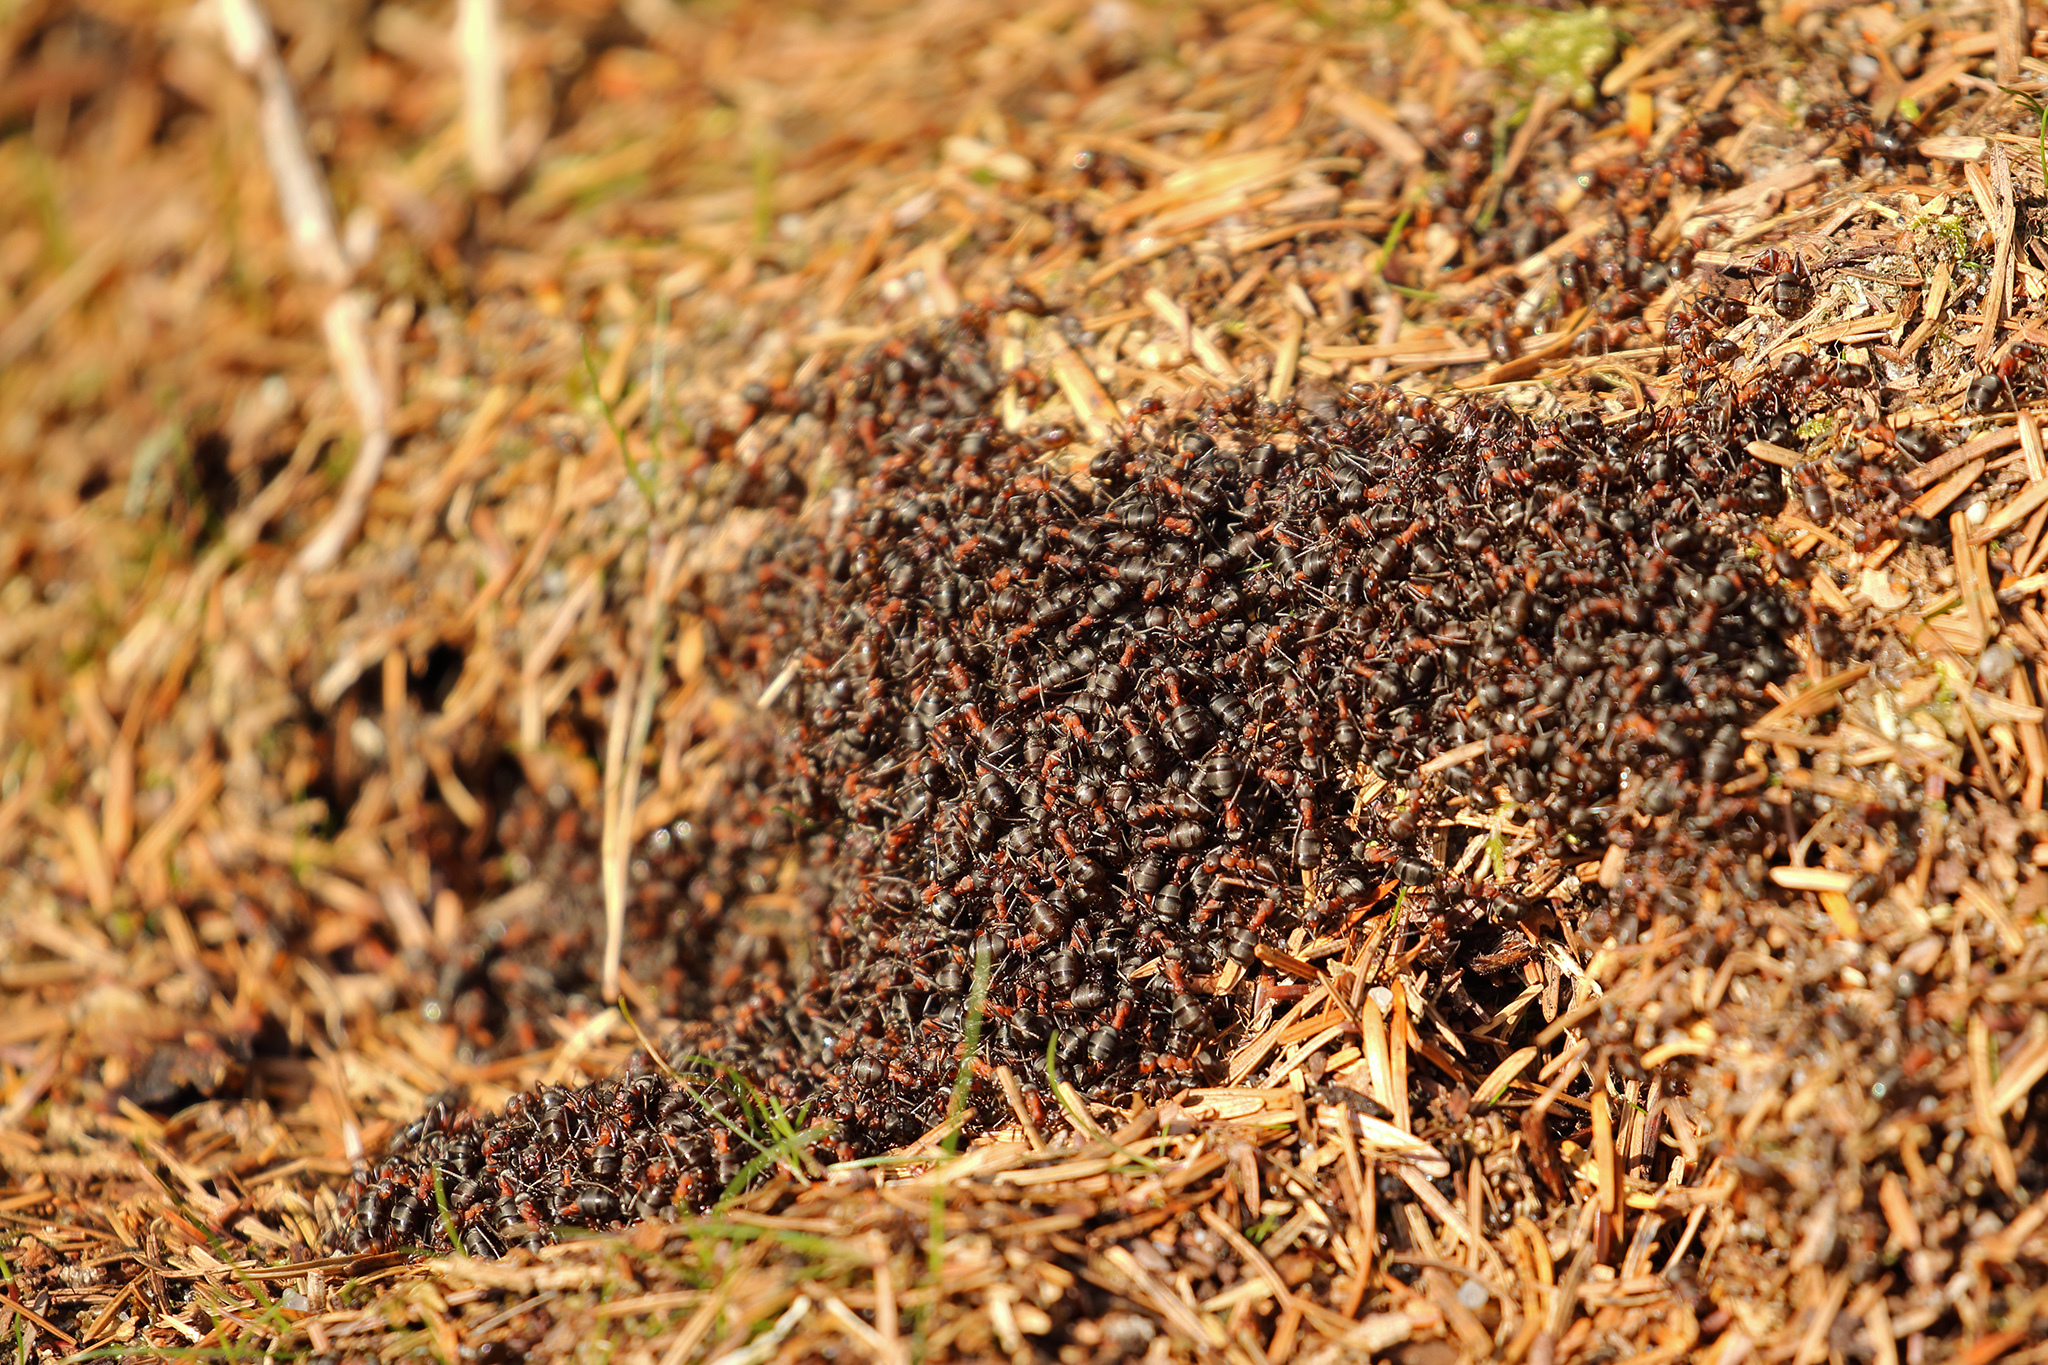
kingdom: Animalia
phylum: Arthropoda
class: Insecta
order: Hymenoptera
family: Formicidae
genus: Formica
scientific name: Formica rufa
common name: Red wood ant
